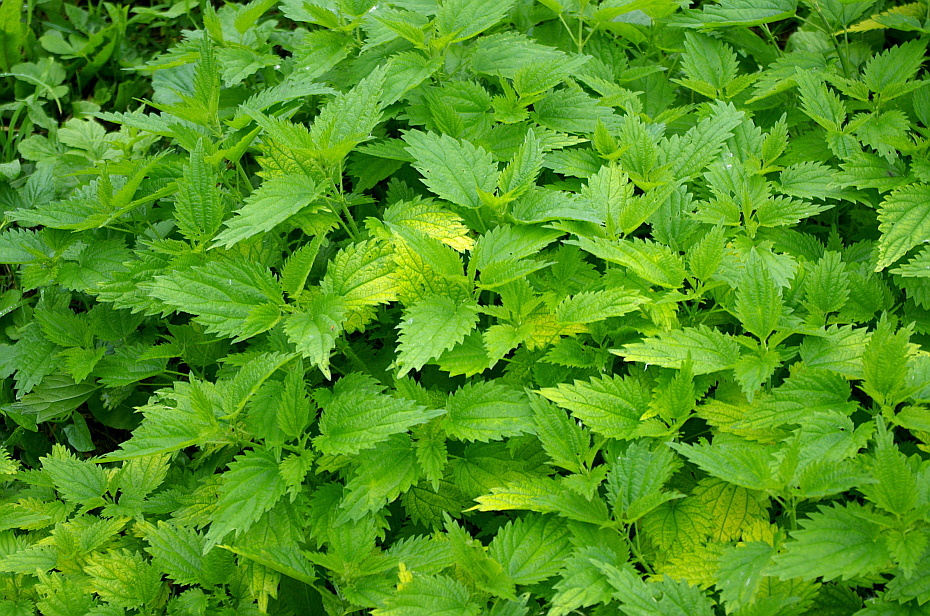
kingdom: Plantae
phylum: Tracheophyta
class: Magnoliopsida
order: Rosales
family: Urticaceae
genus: Urtica
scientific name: Urtica dioica
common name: Common nettle
